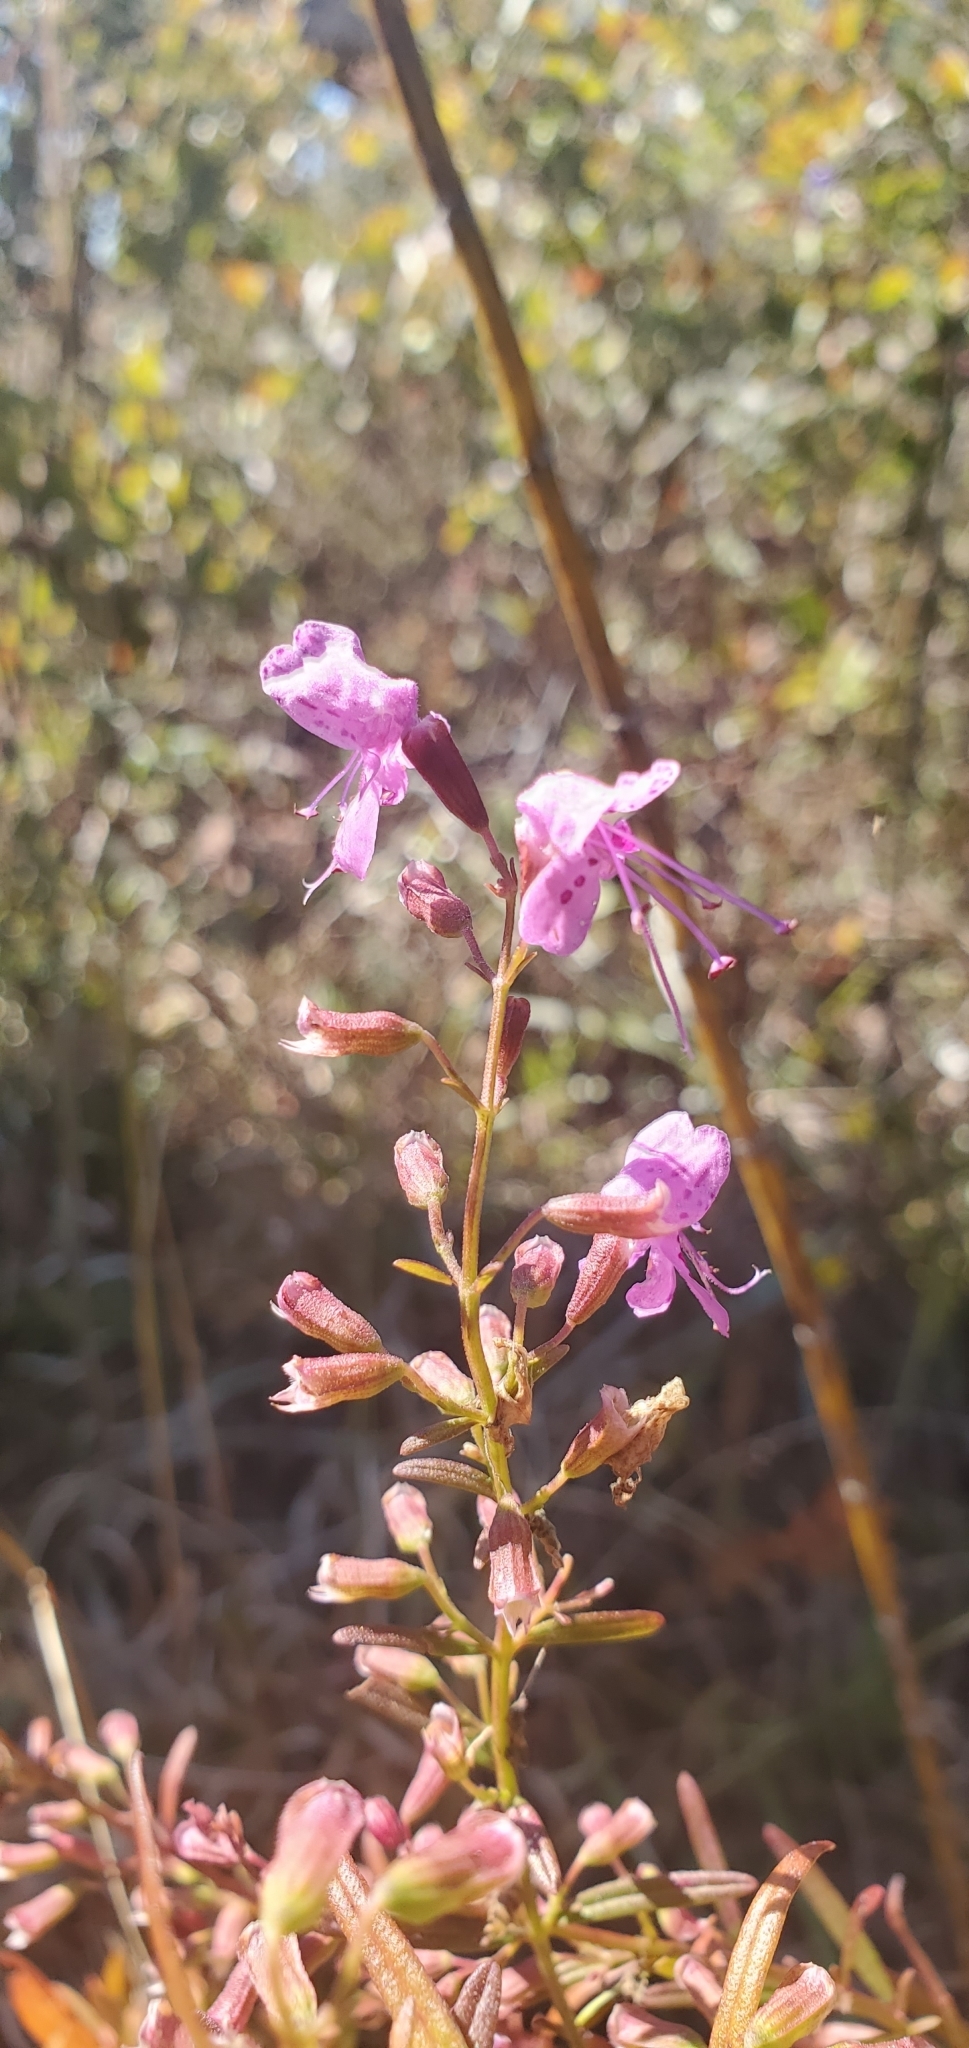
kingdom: Plantae
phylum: Tracheophyta
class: Magnoliopsida
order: Lamiales
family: Lamiaceae
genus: Dicerandra
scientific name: Dicerandra linearifolia
